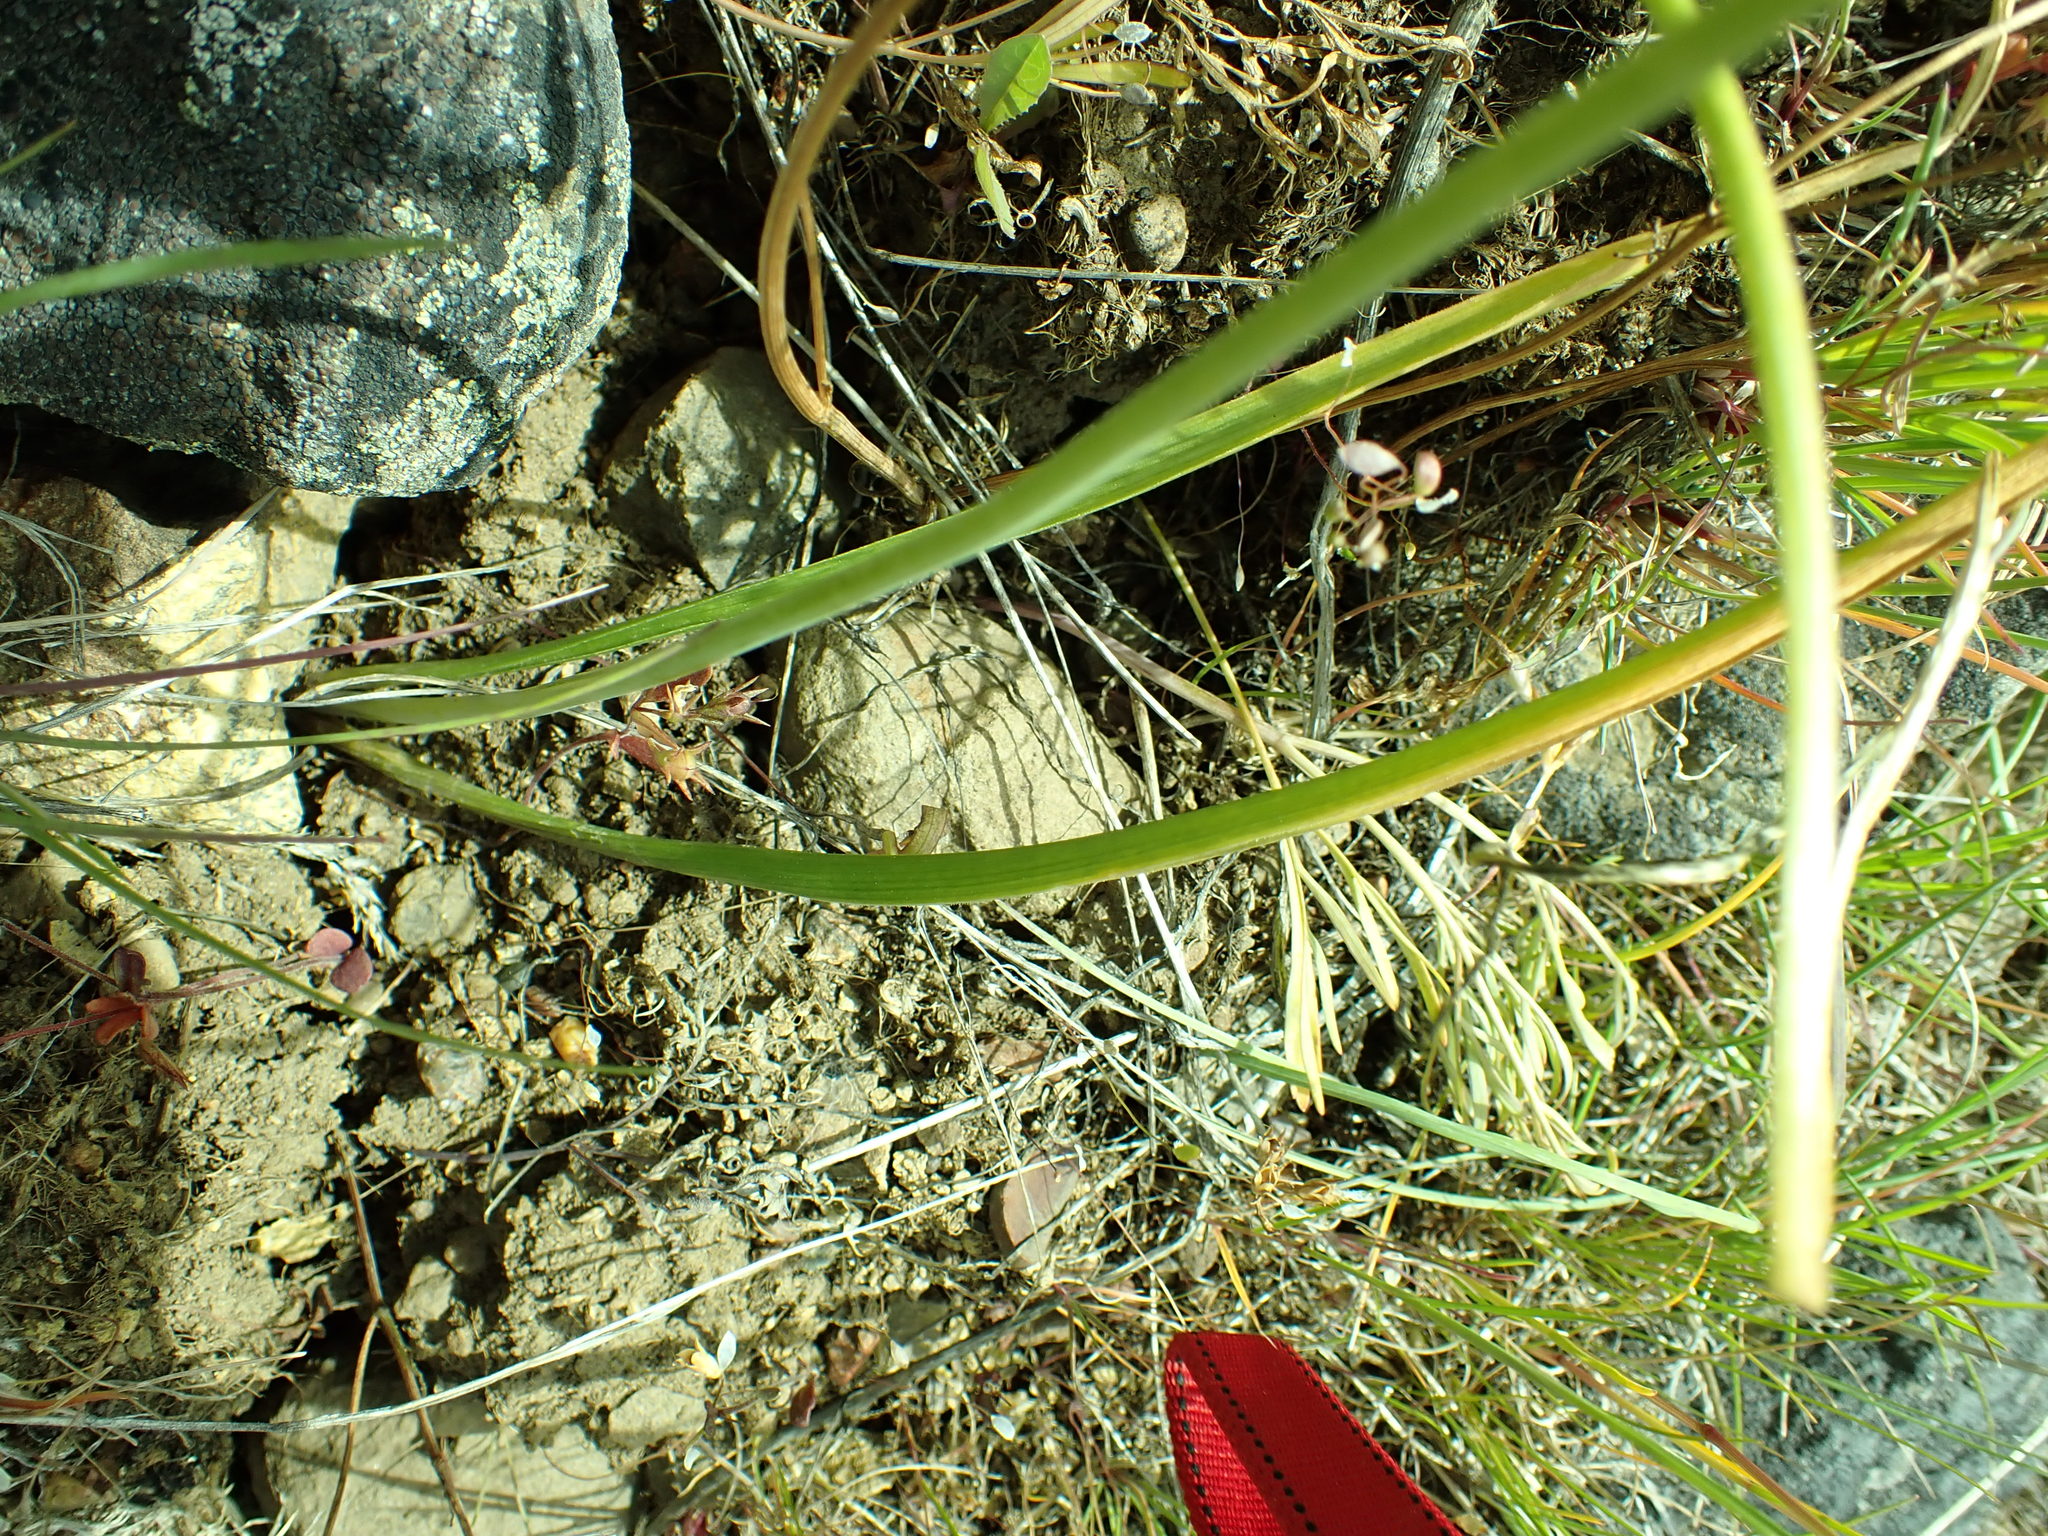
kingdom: Plantae
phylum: Tracheophyta
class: Liliopsida
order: Asparagales
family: Asparagaceae
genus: Triteleia
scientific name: Triteleia grandiflora
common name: Wild hyacinth
